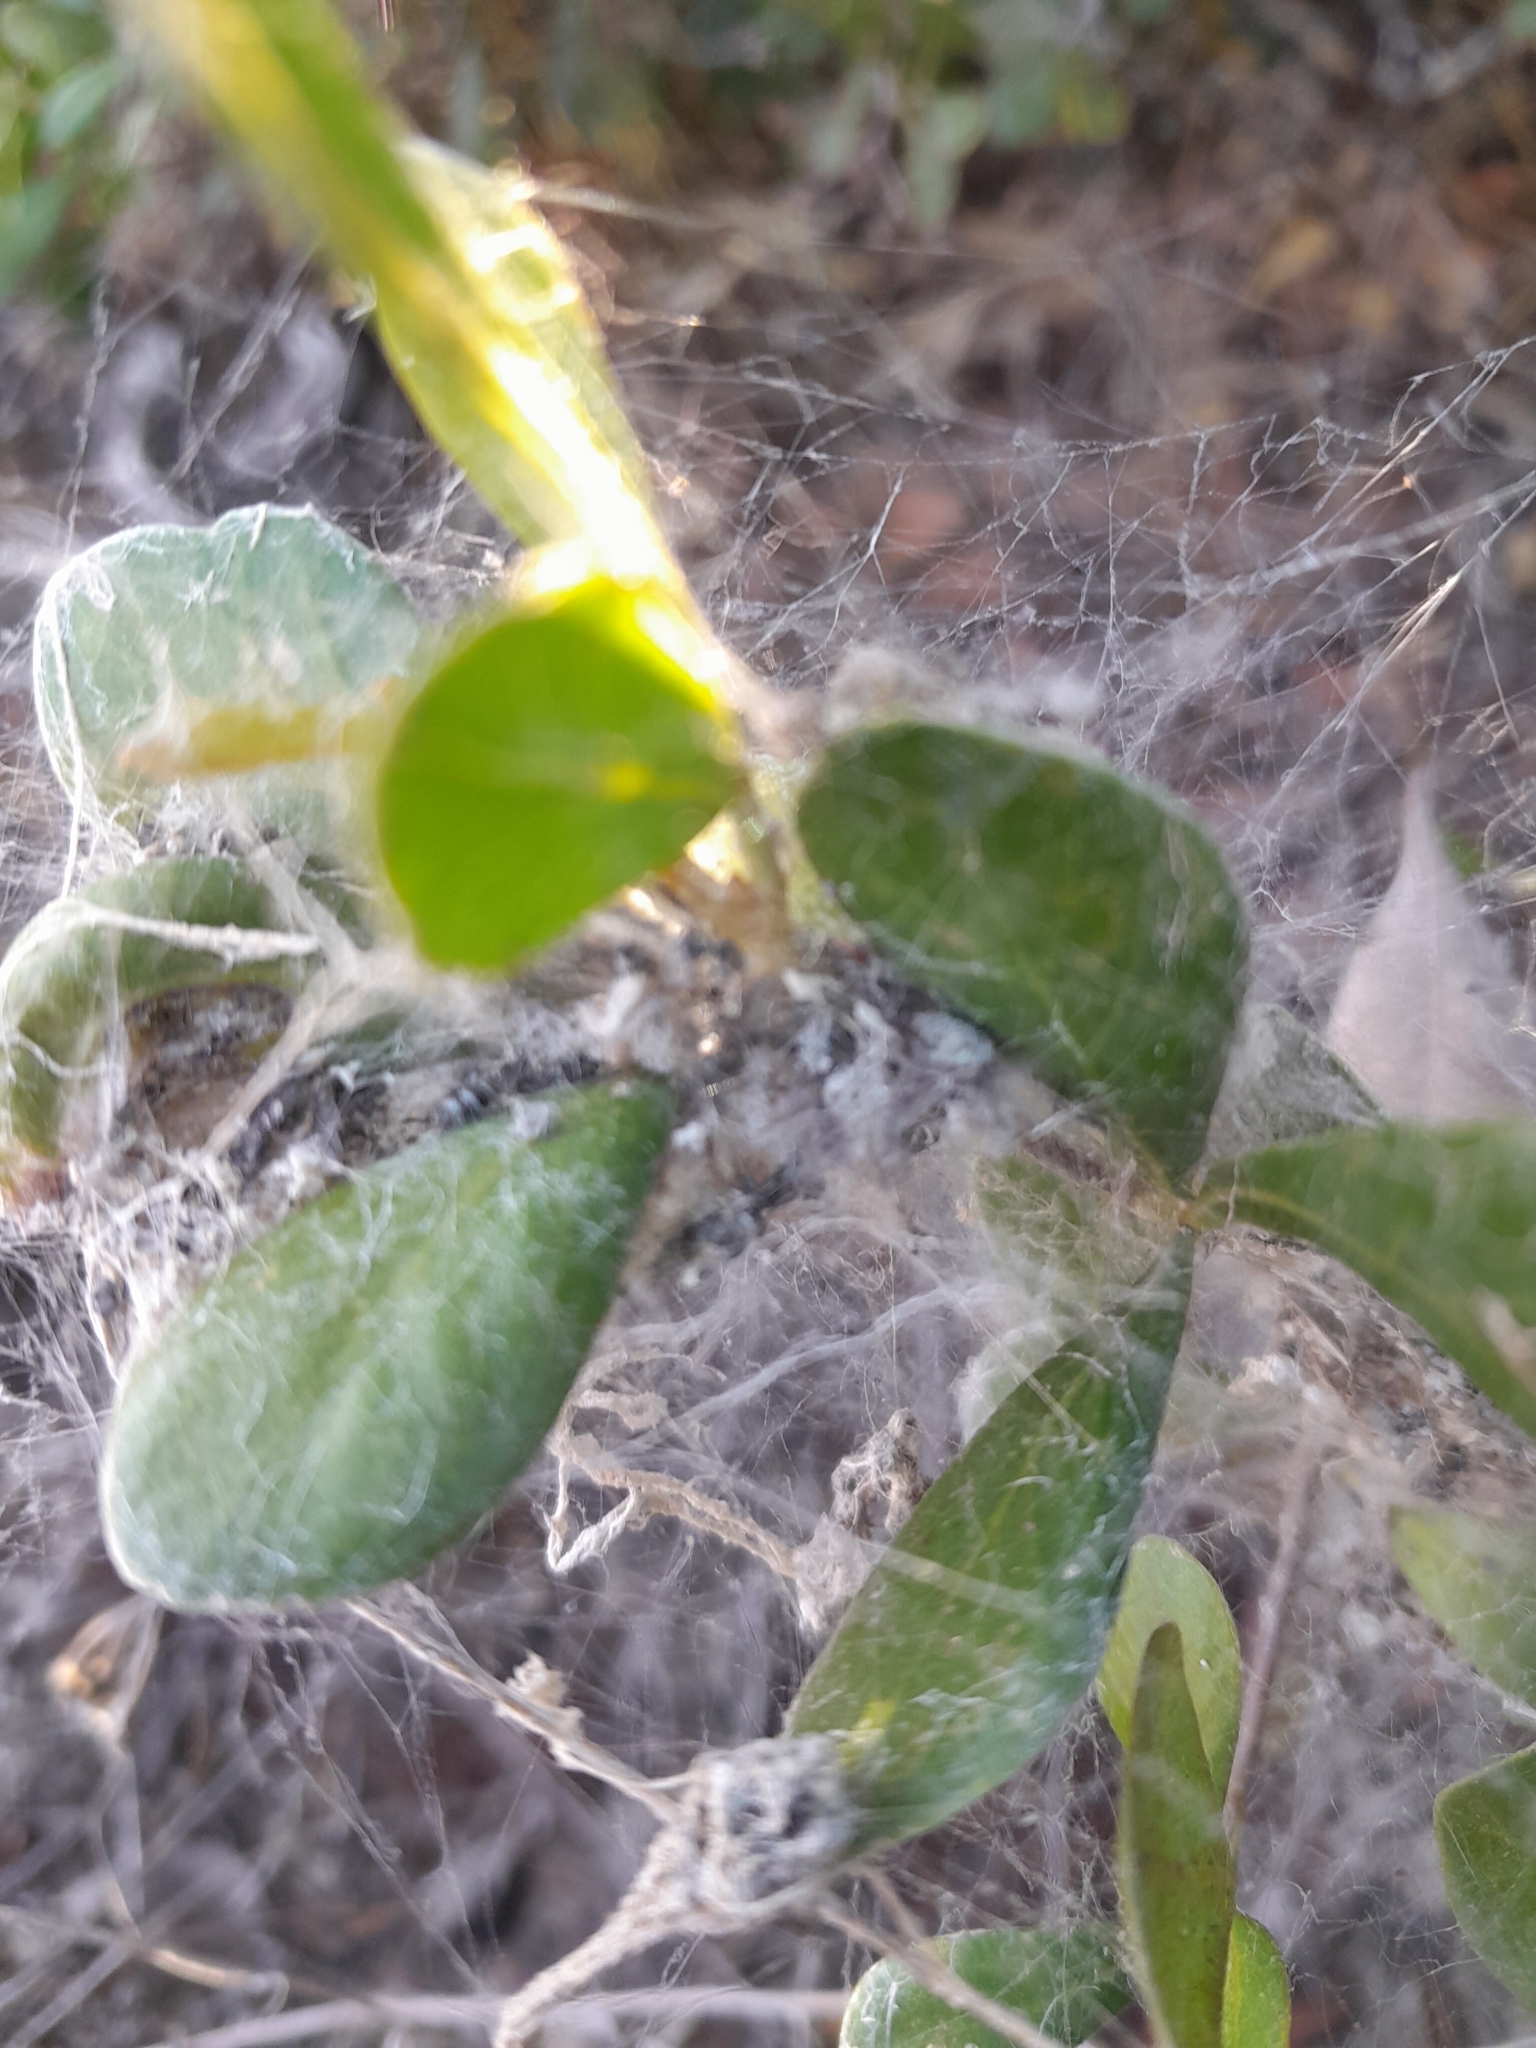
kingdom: Animalia
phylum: Arthropoda
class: Arachnida
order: Araneae
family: Eresidae
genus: Stegodyphus
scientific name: Stegodyphus dumicola
